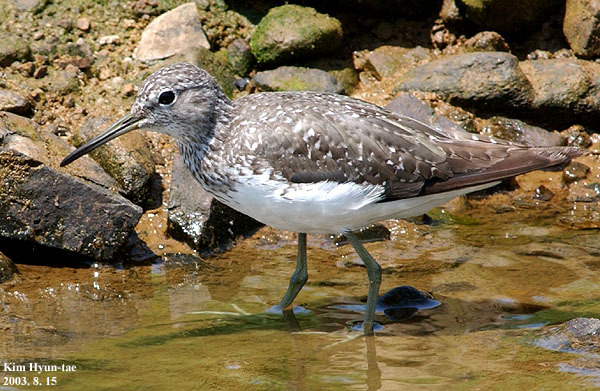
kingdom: Animalia
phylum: Chordata
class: Aves
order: Charadriiformes
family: Scolopacidae
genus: Tringa
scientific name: Tringa ochropus
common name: Green sandpiper
